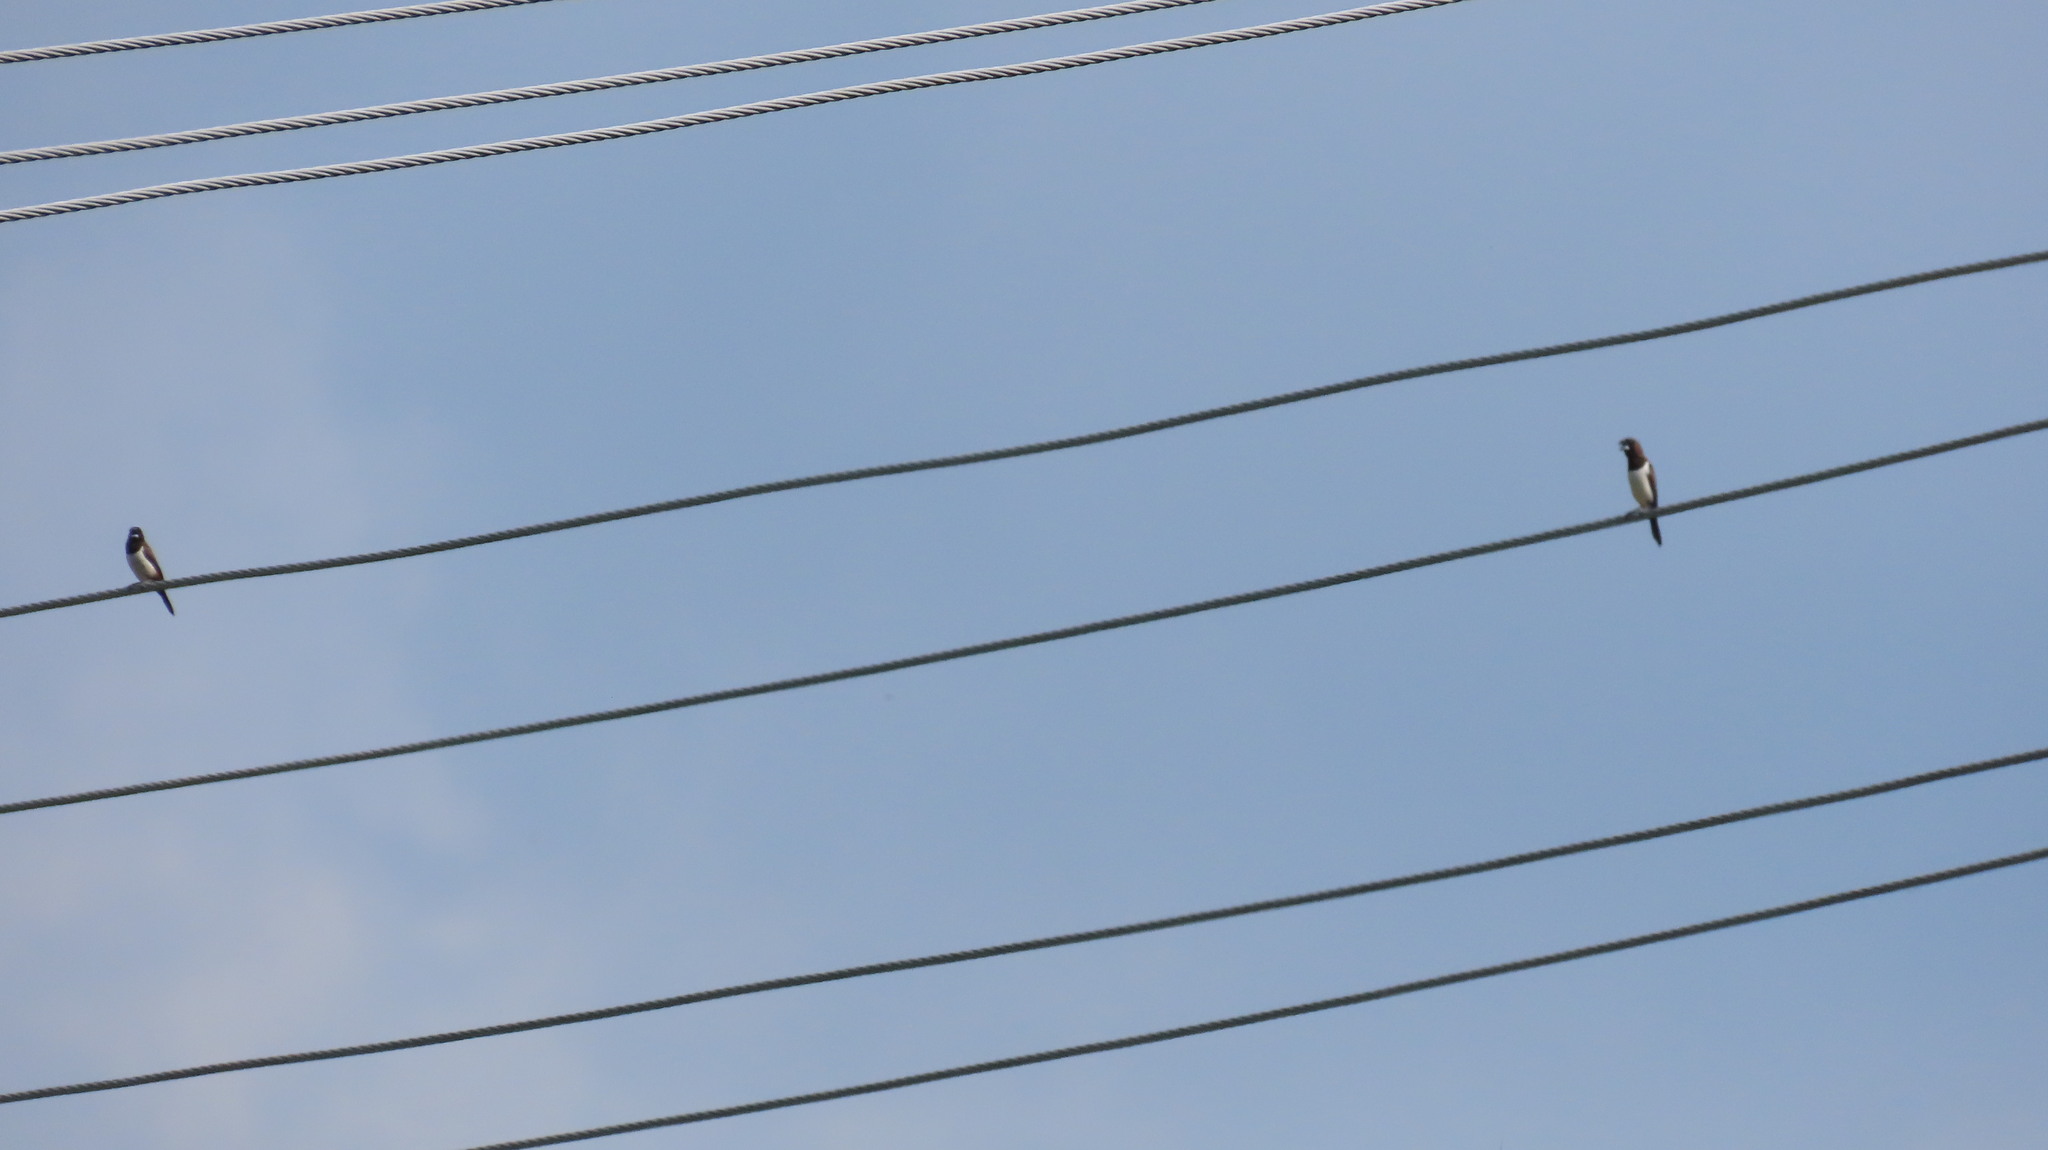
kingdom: Animalia
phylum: Chordata
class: Aves
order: Passeriformes
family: Estrildidae
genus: Lonchura
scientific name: Lonchura striata
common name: White-rumped munia
